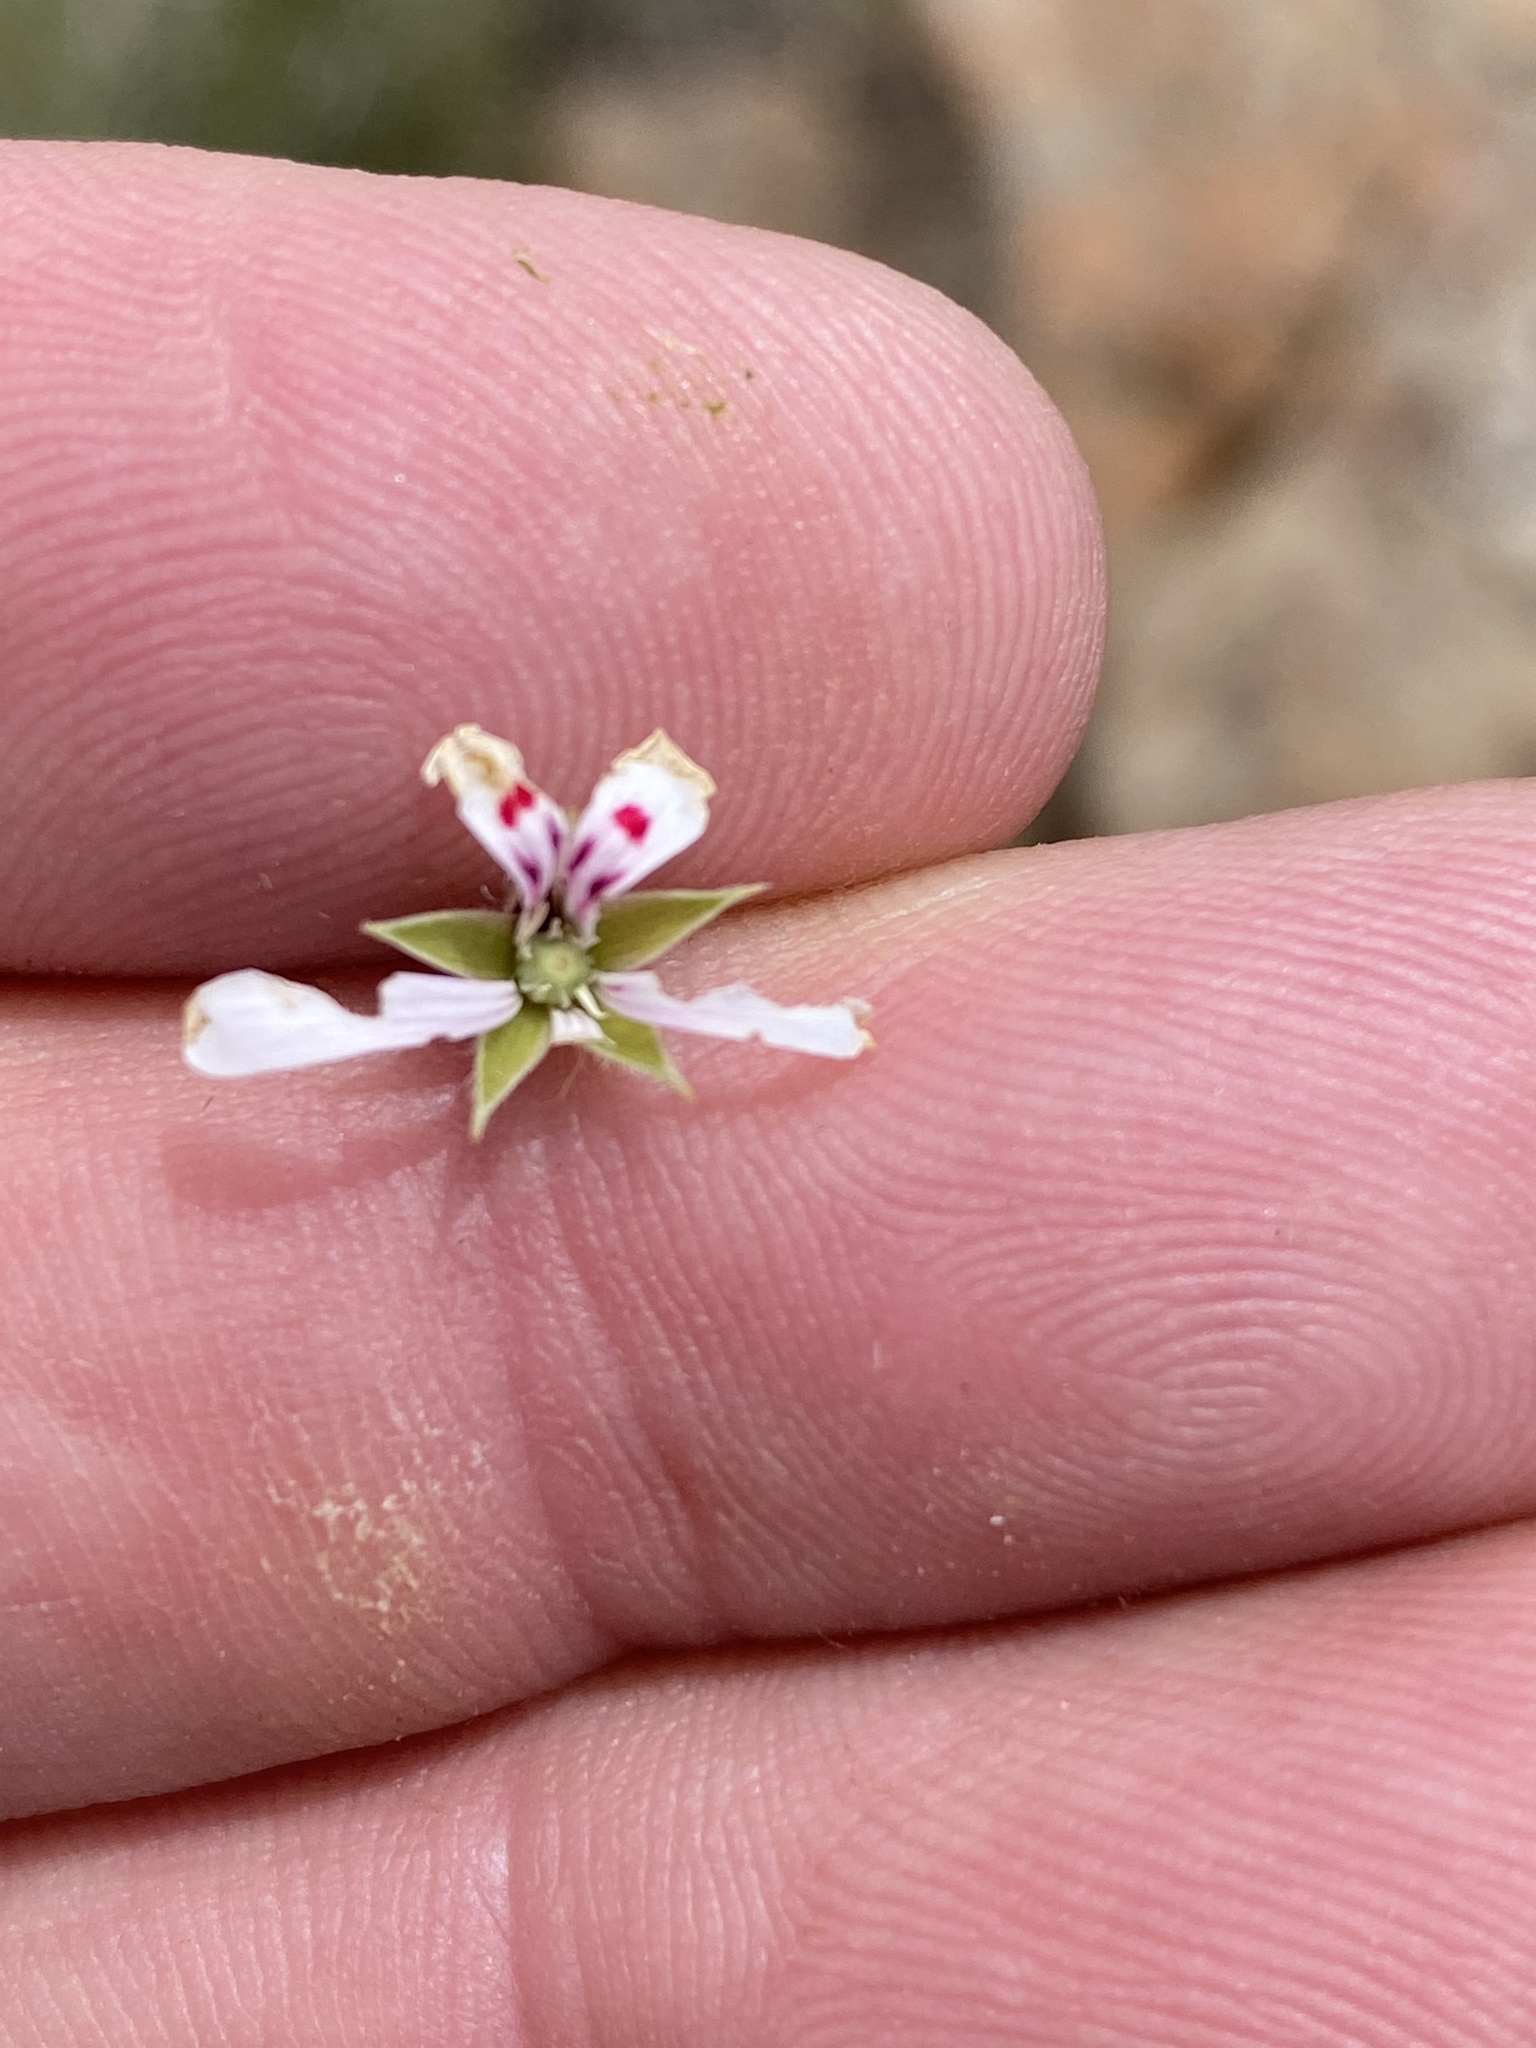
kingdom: Plantae
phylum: Tracheophyta
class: Magnoliopsida
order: Geraniales
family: Geraniaceae
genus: Pelargonium
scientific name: Pelargonium ranunculophyllum
